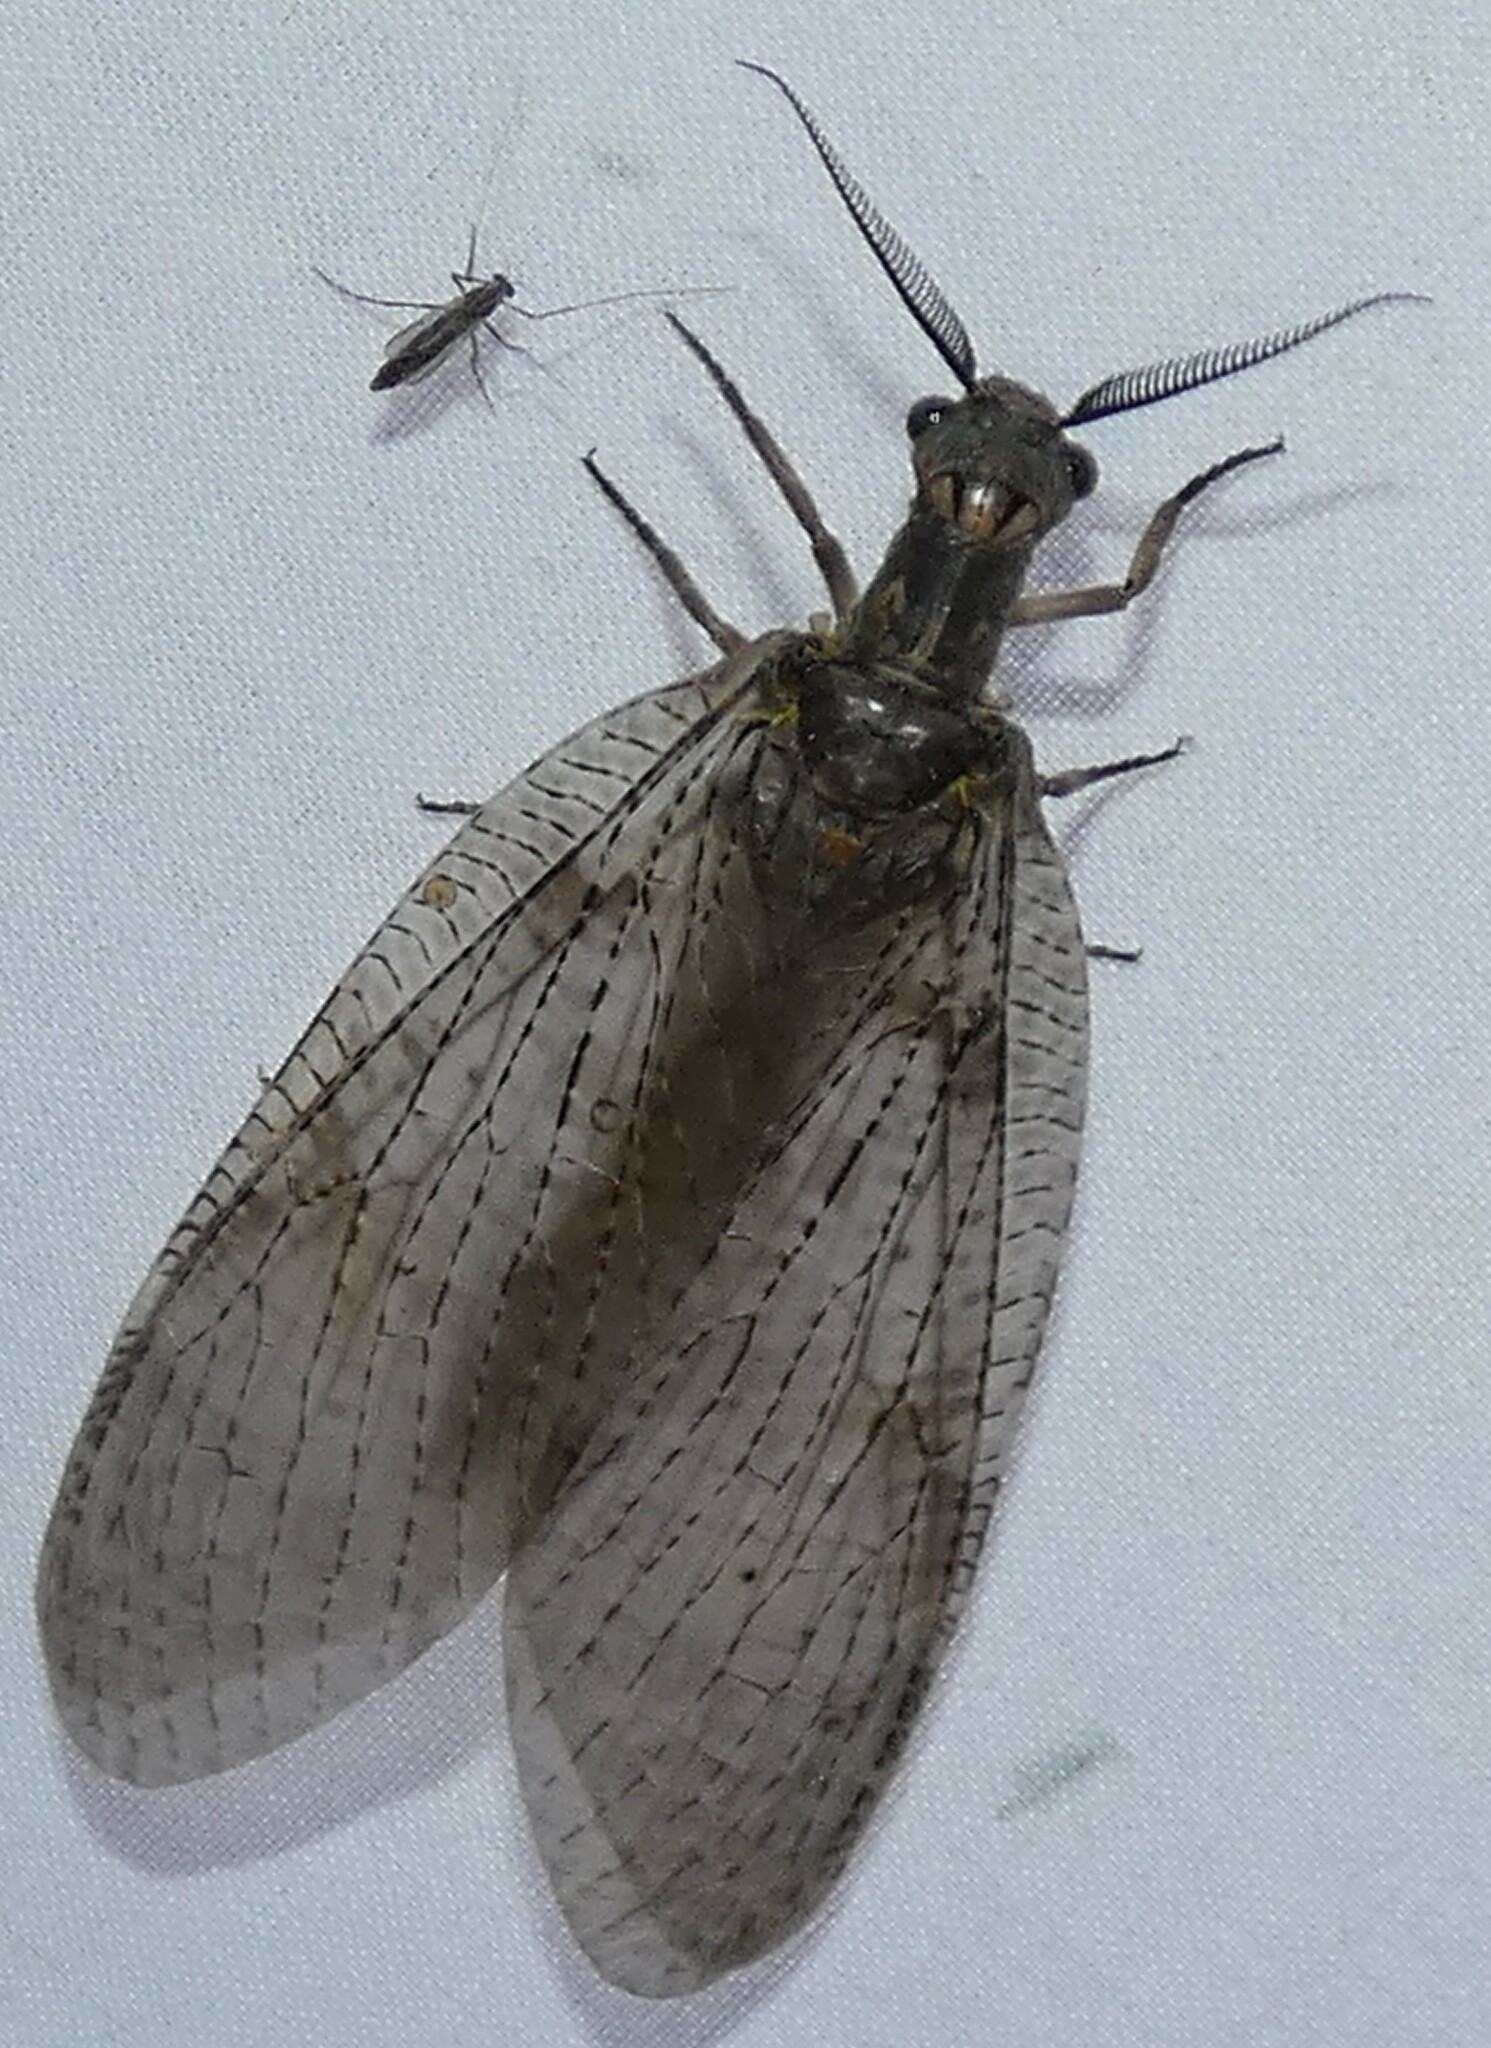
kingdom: Animalia
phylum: Arthropoda
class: Insecta
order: Megaloptera
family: Corydalidae
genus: Chauliodes
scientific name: Chauliodes pectinicornis
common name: Summer fishfly
